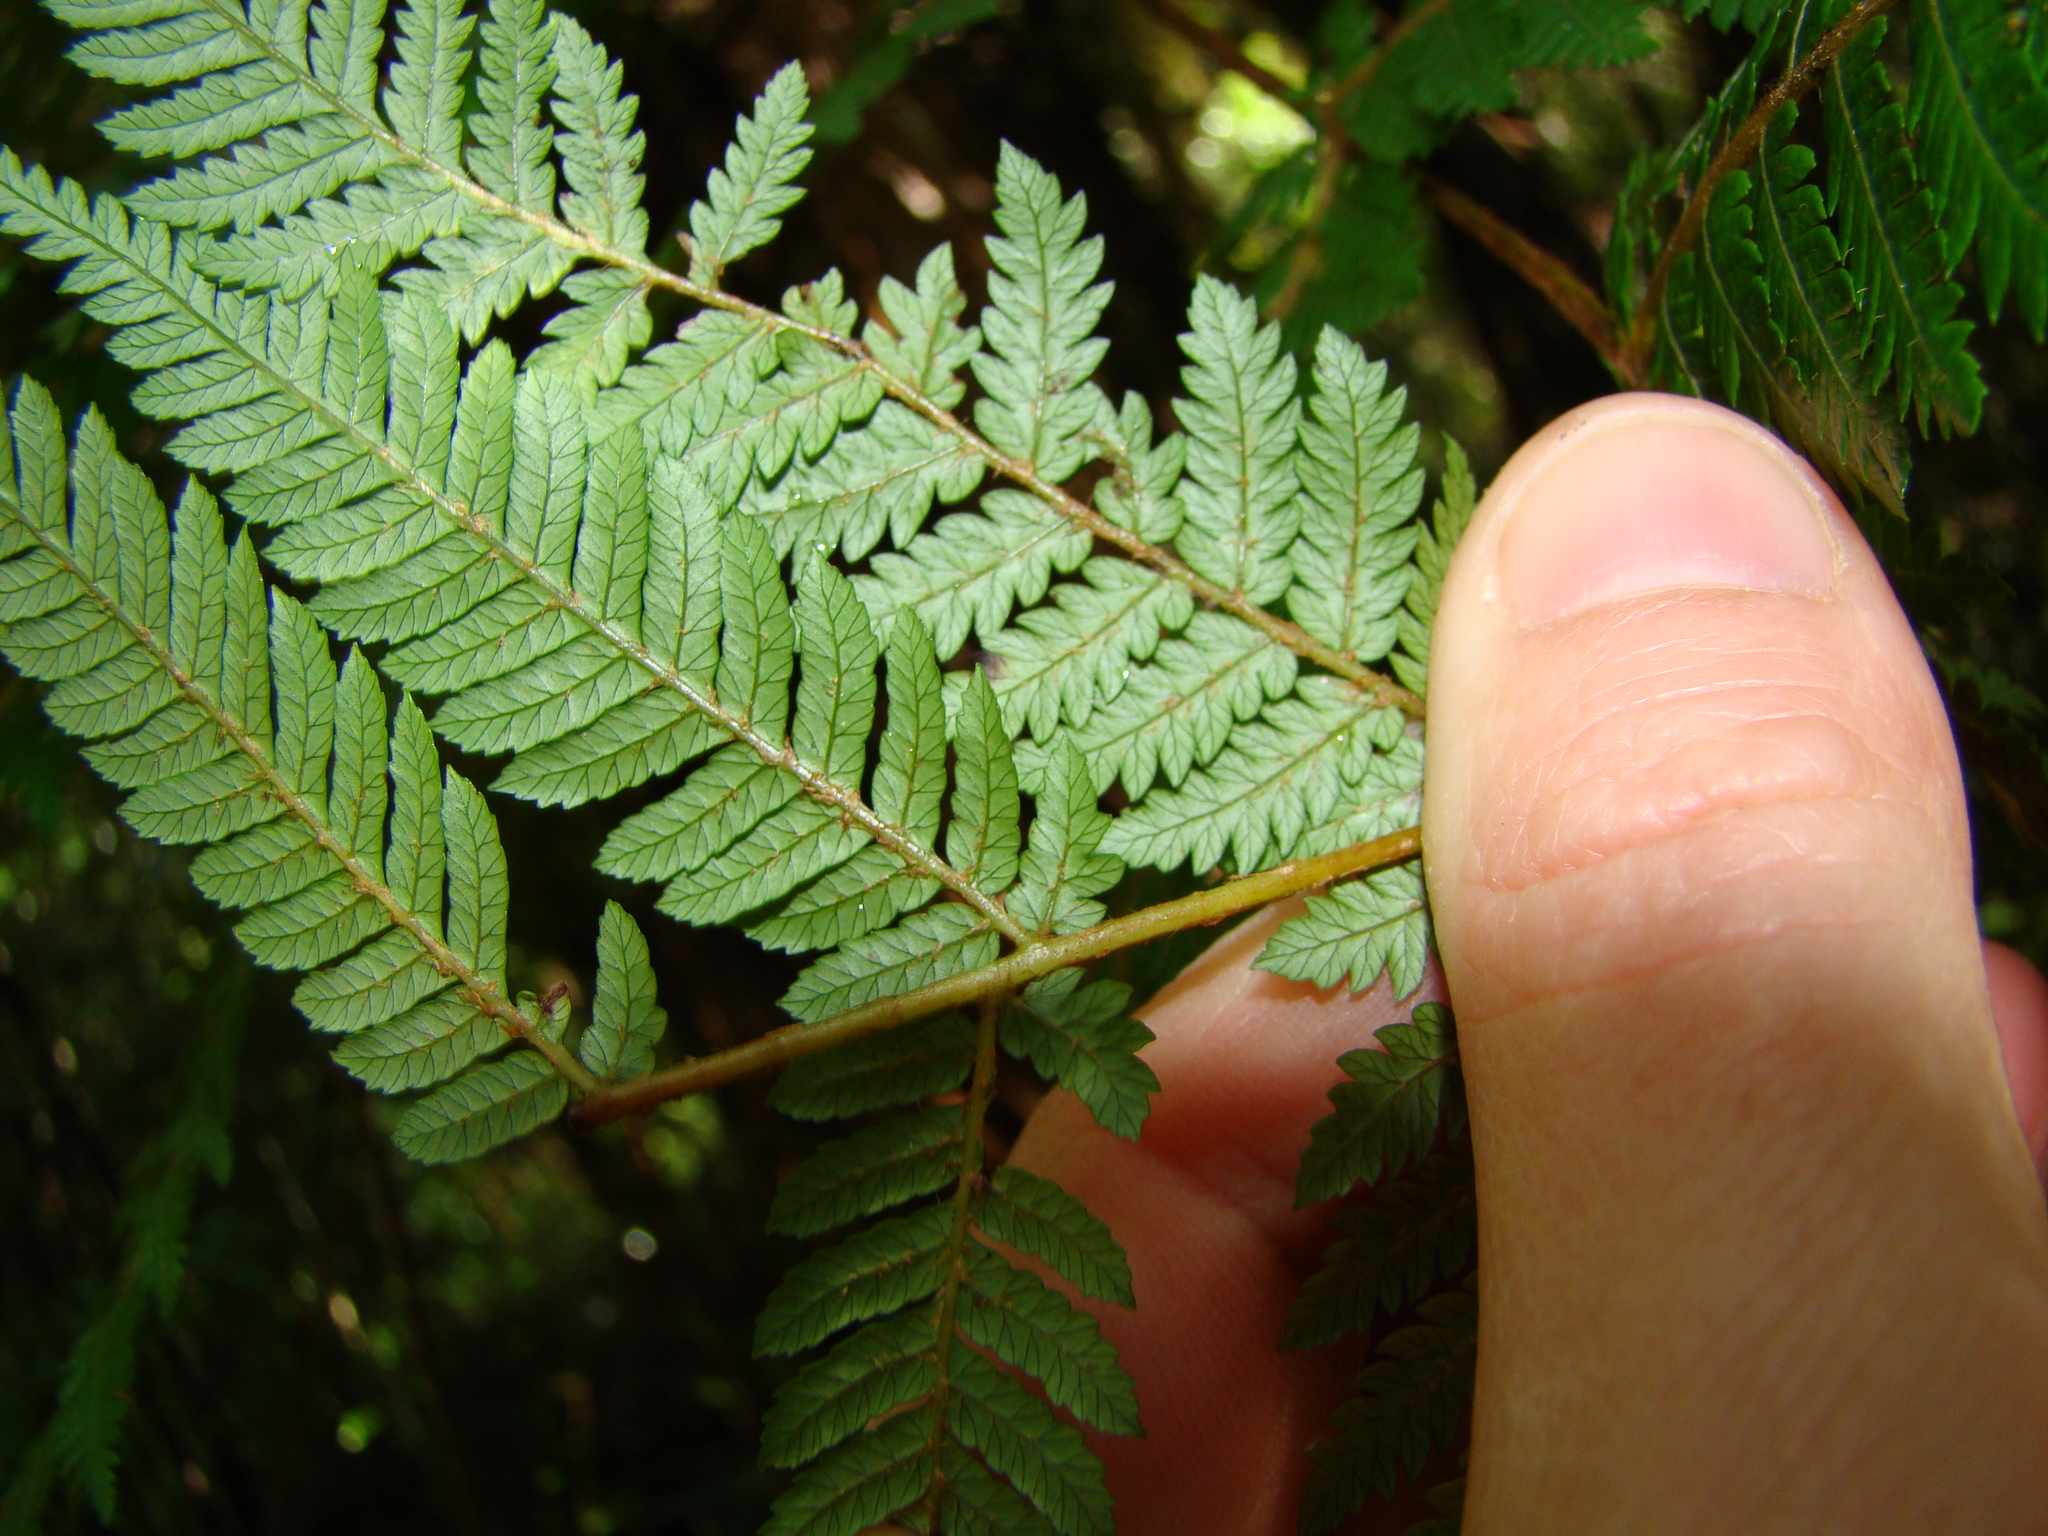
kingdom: Plantae
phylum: Tracheophyta
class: Polypodiopsida
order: Cyatheales
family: Cyatheaceae
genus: Alsophila
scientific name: Alsophila smithii
